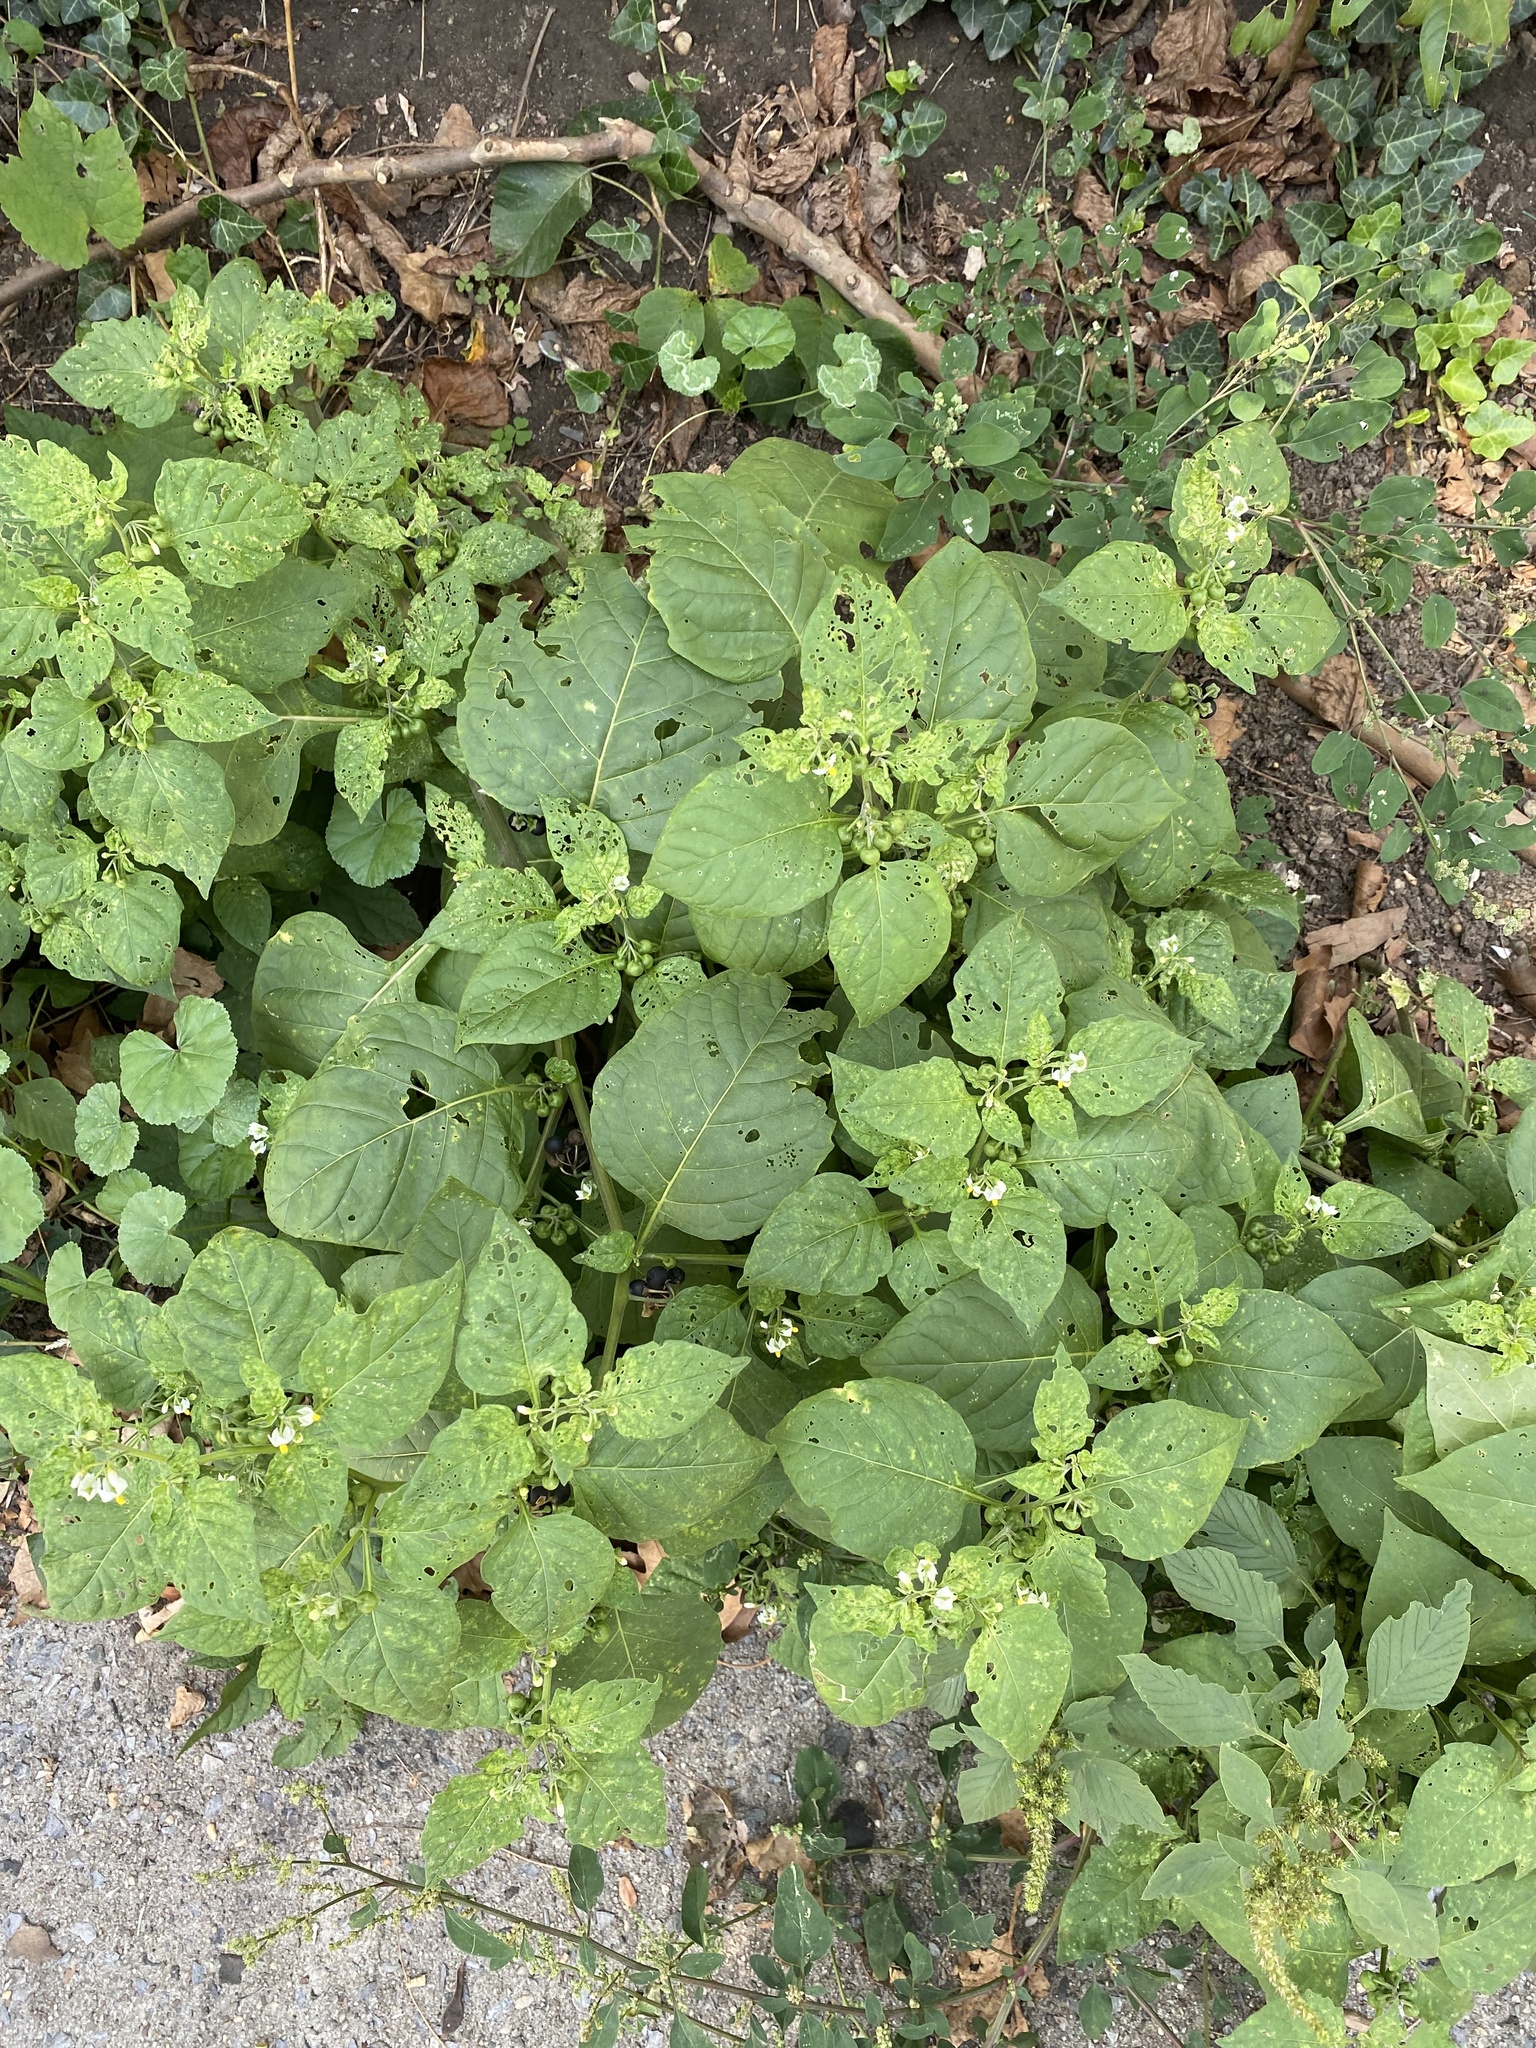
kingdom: Plantae
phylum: Tracheophyta
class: Magnoliopsida
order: Solanales
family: Solanaceae
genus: Solanum
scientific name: Solanum nigrum
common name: Black nightshade
